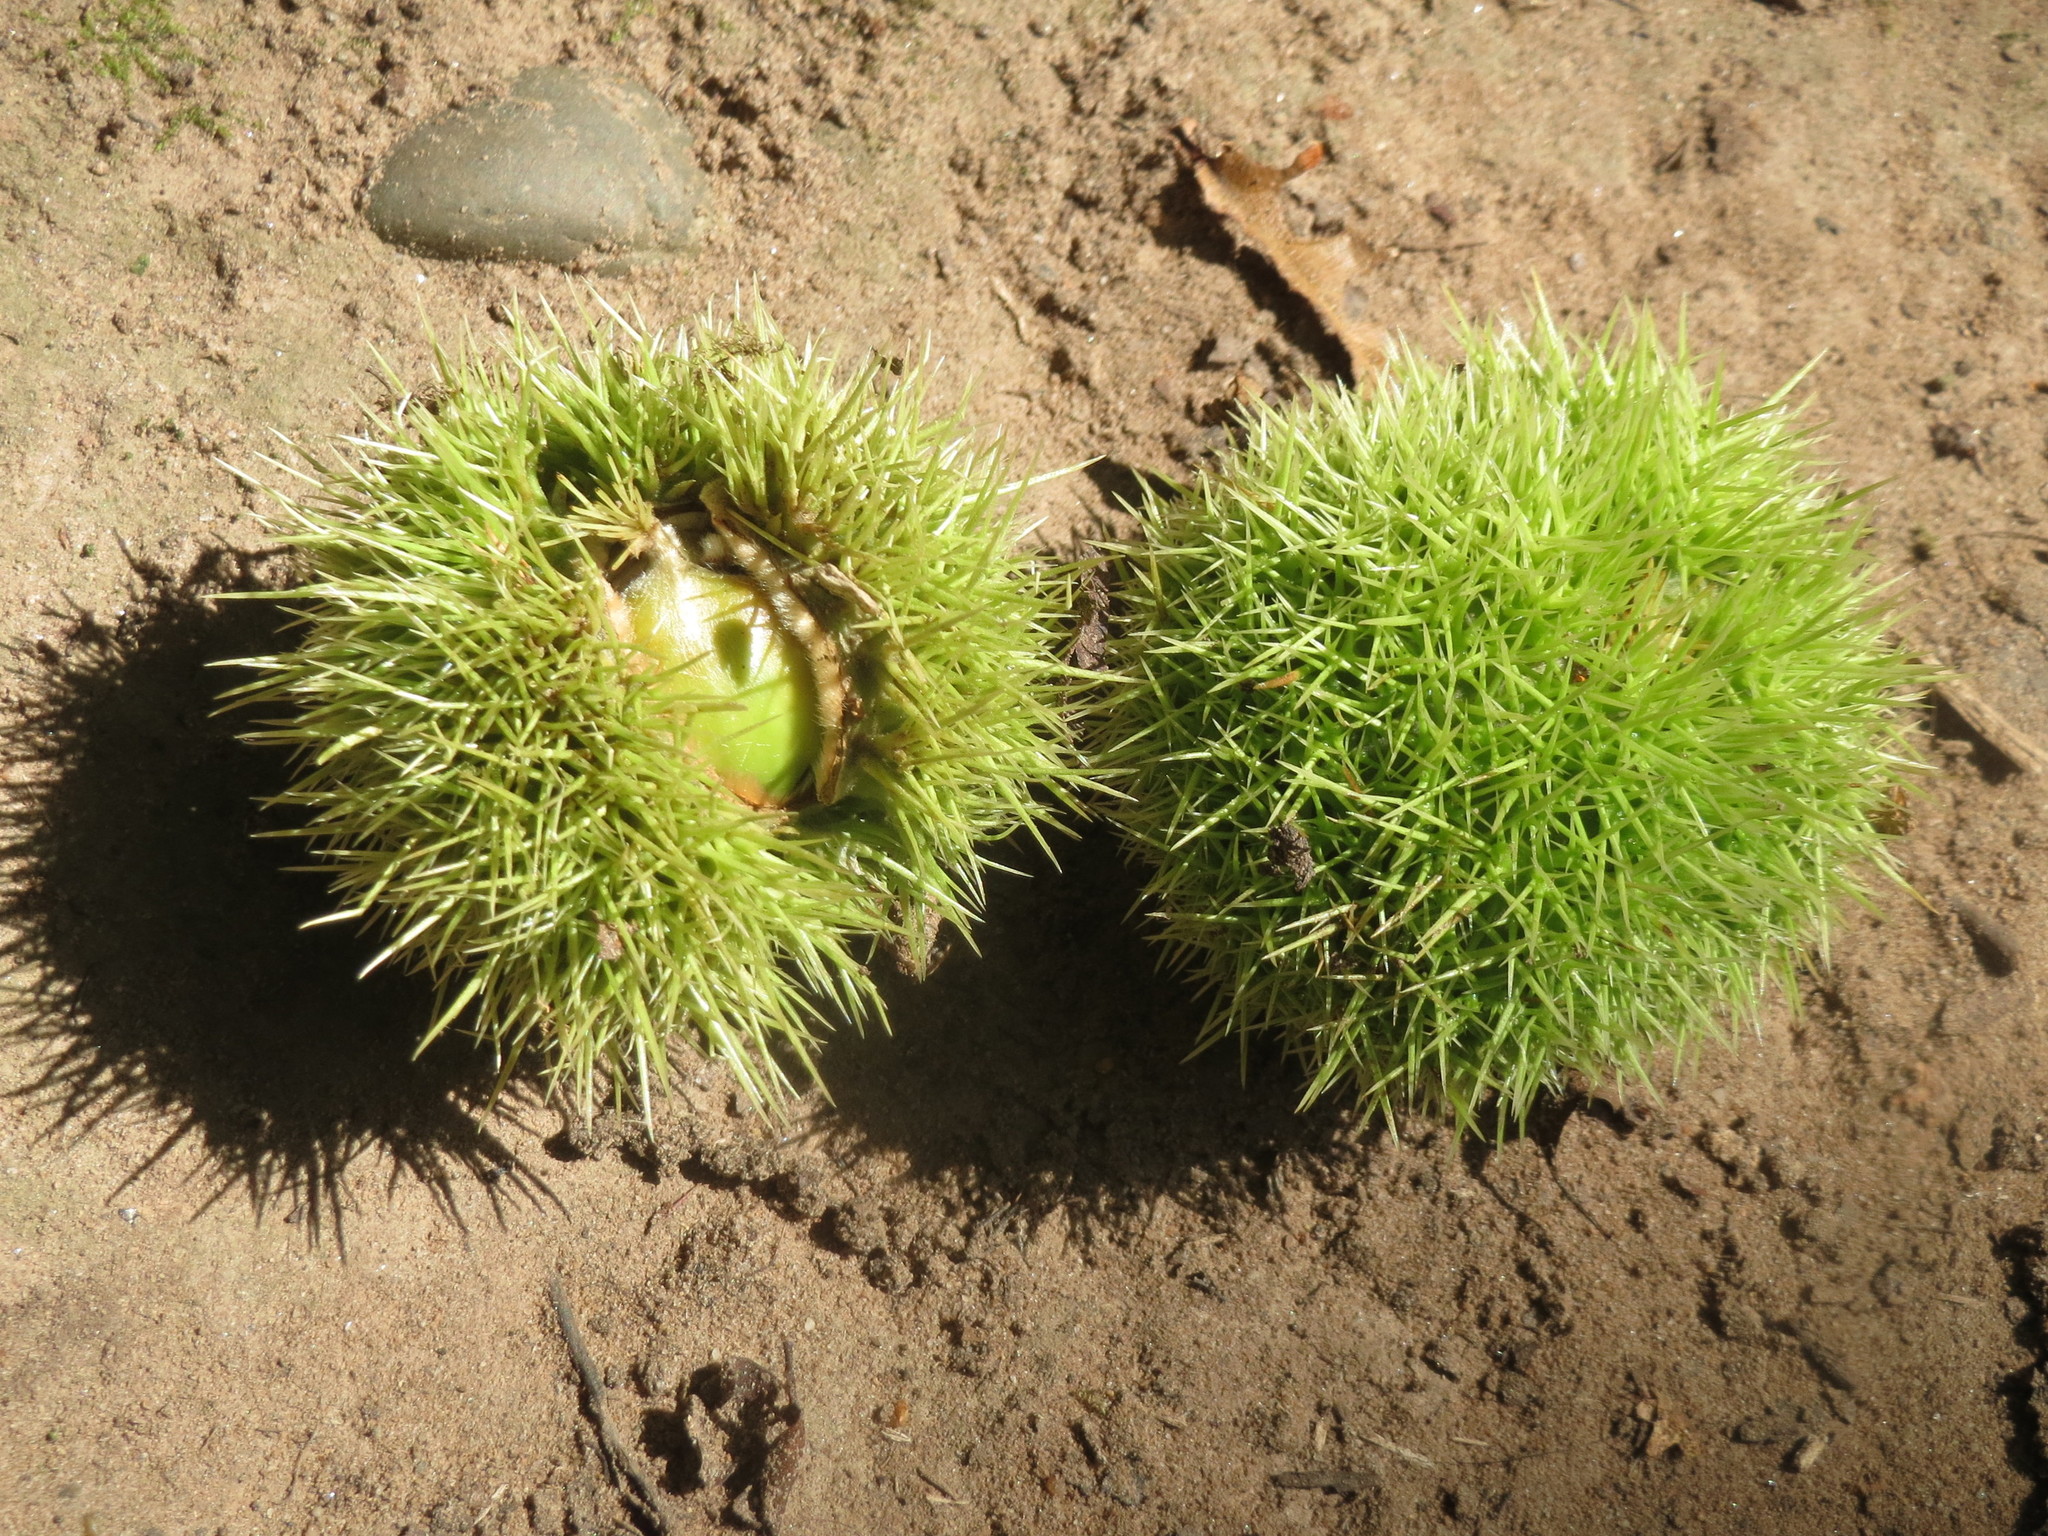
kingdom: Plantae
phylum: Tracheophyta
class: Magnoliopsida
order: Fagales
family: Fagaceae
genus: Castanea
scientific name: Castanea sativa
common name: Sweet chestnut
